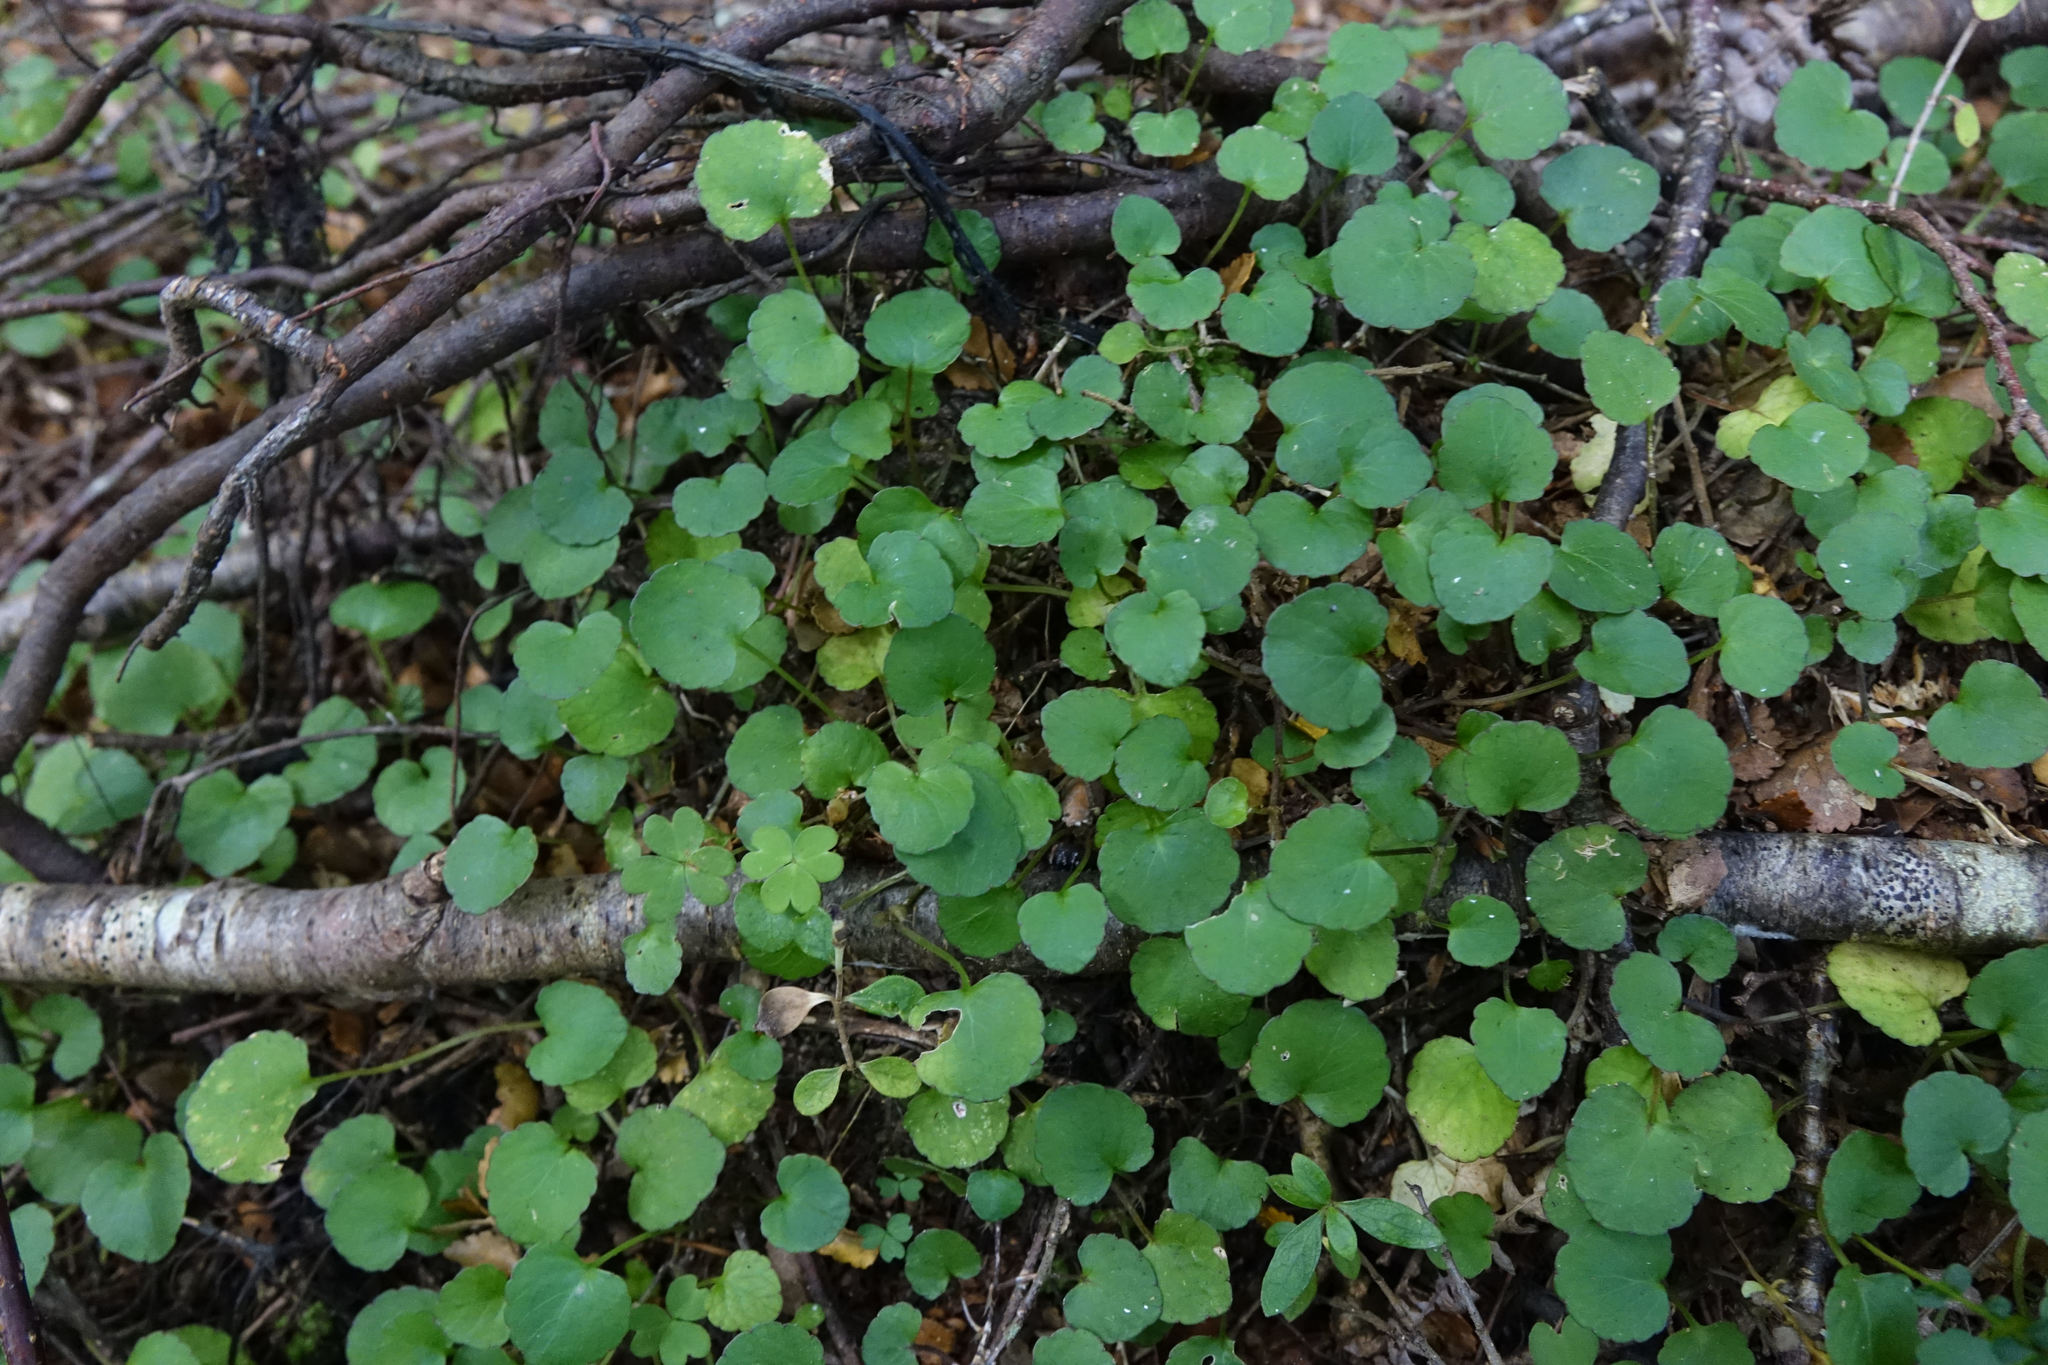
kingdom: Plantae
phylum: Tracheophyta
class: Magnoliopsida
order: Malpighiales
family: Violaceae
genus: Viola
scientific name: Viola filicaulis
